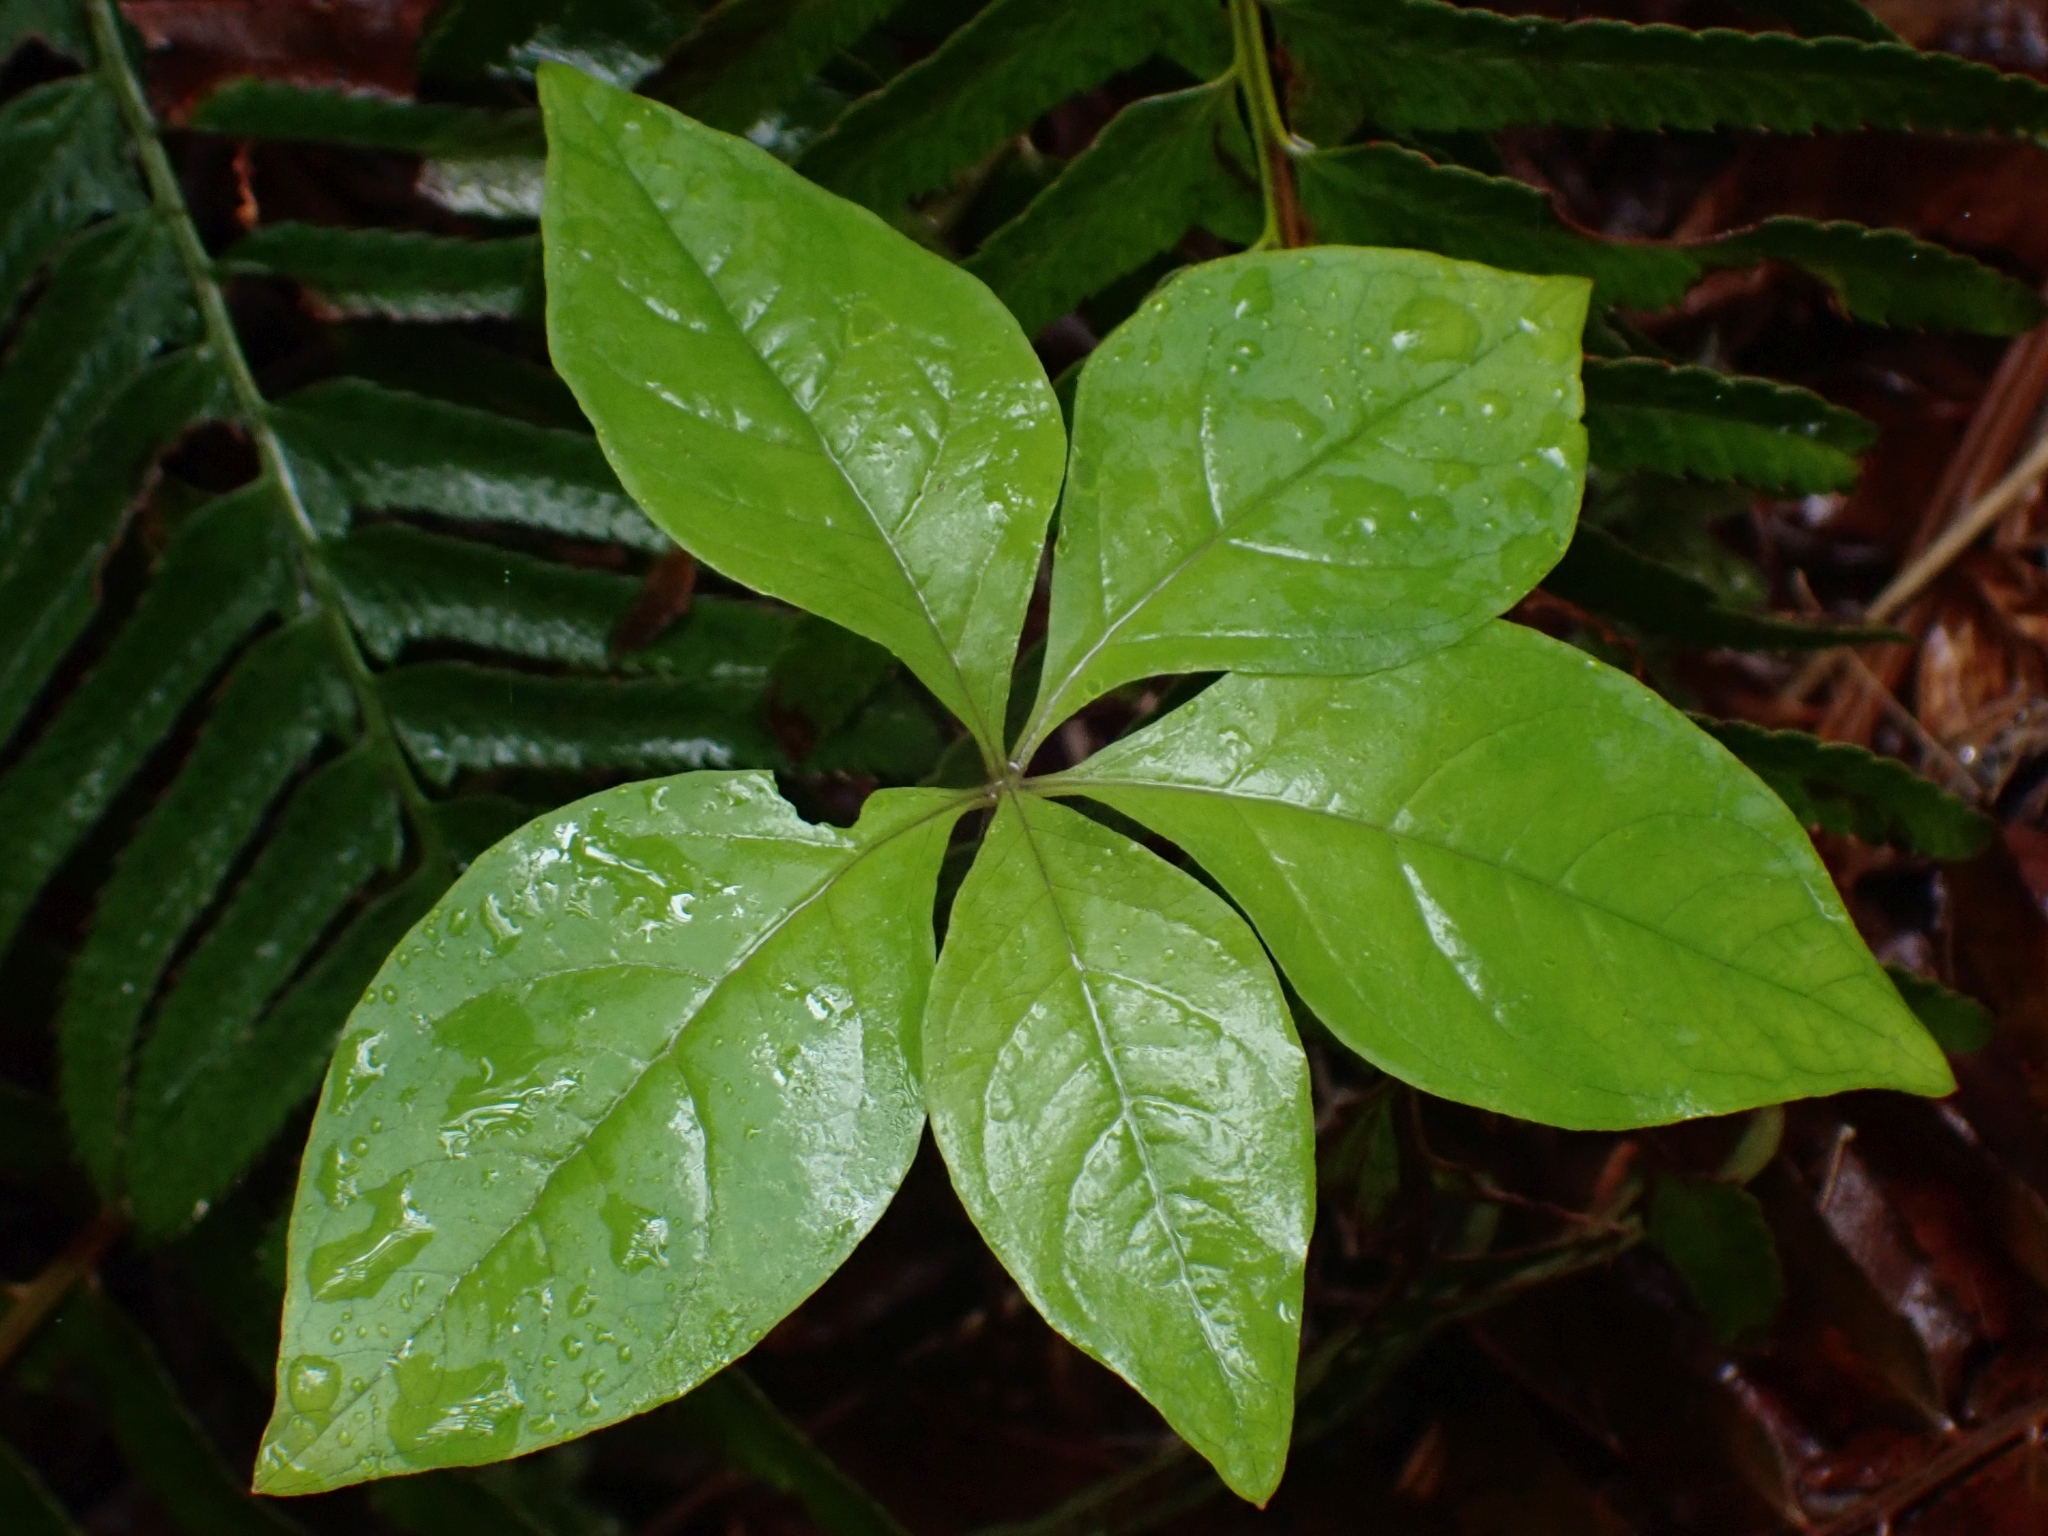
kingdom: Plantae
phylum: Tracheophyta
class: Magnoliopsida
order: Ericales
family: Primulaceae
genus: Lysimachia
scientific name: Lysimachia latifolia
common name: Pacific starflower
